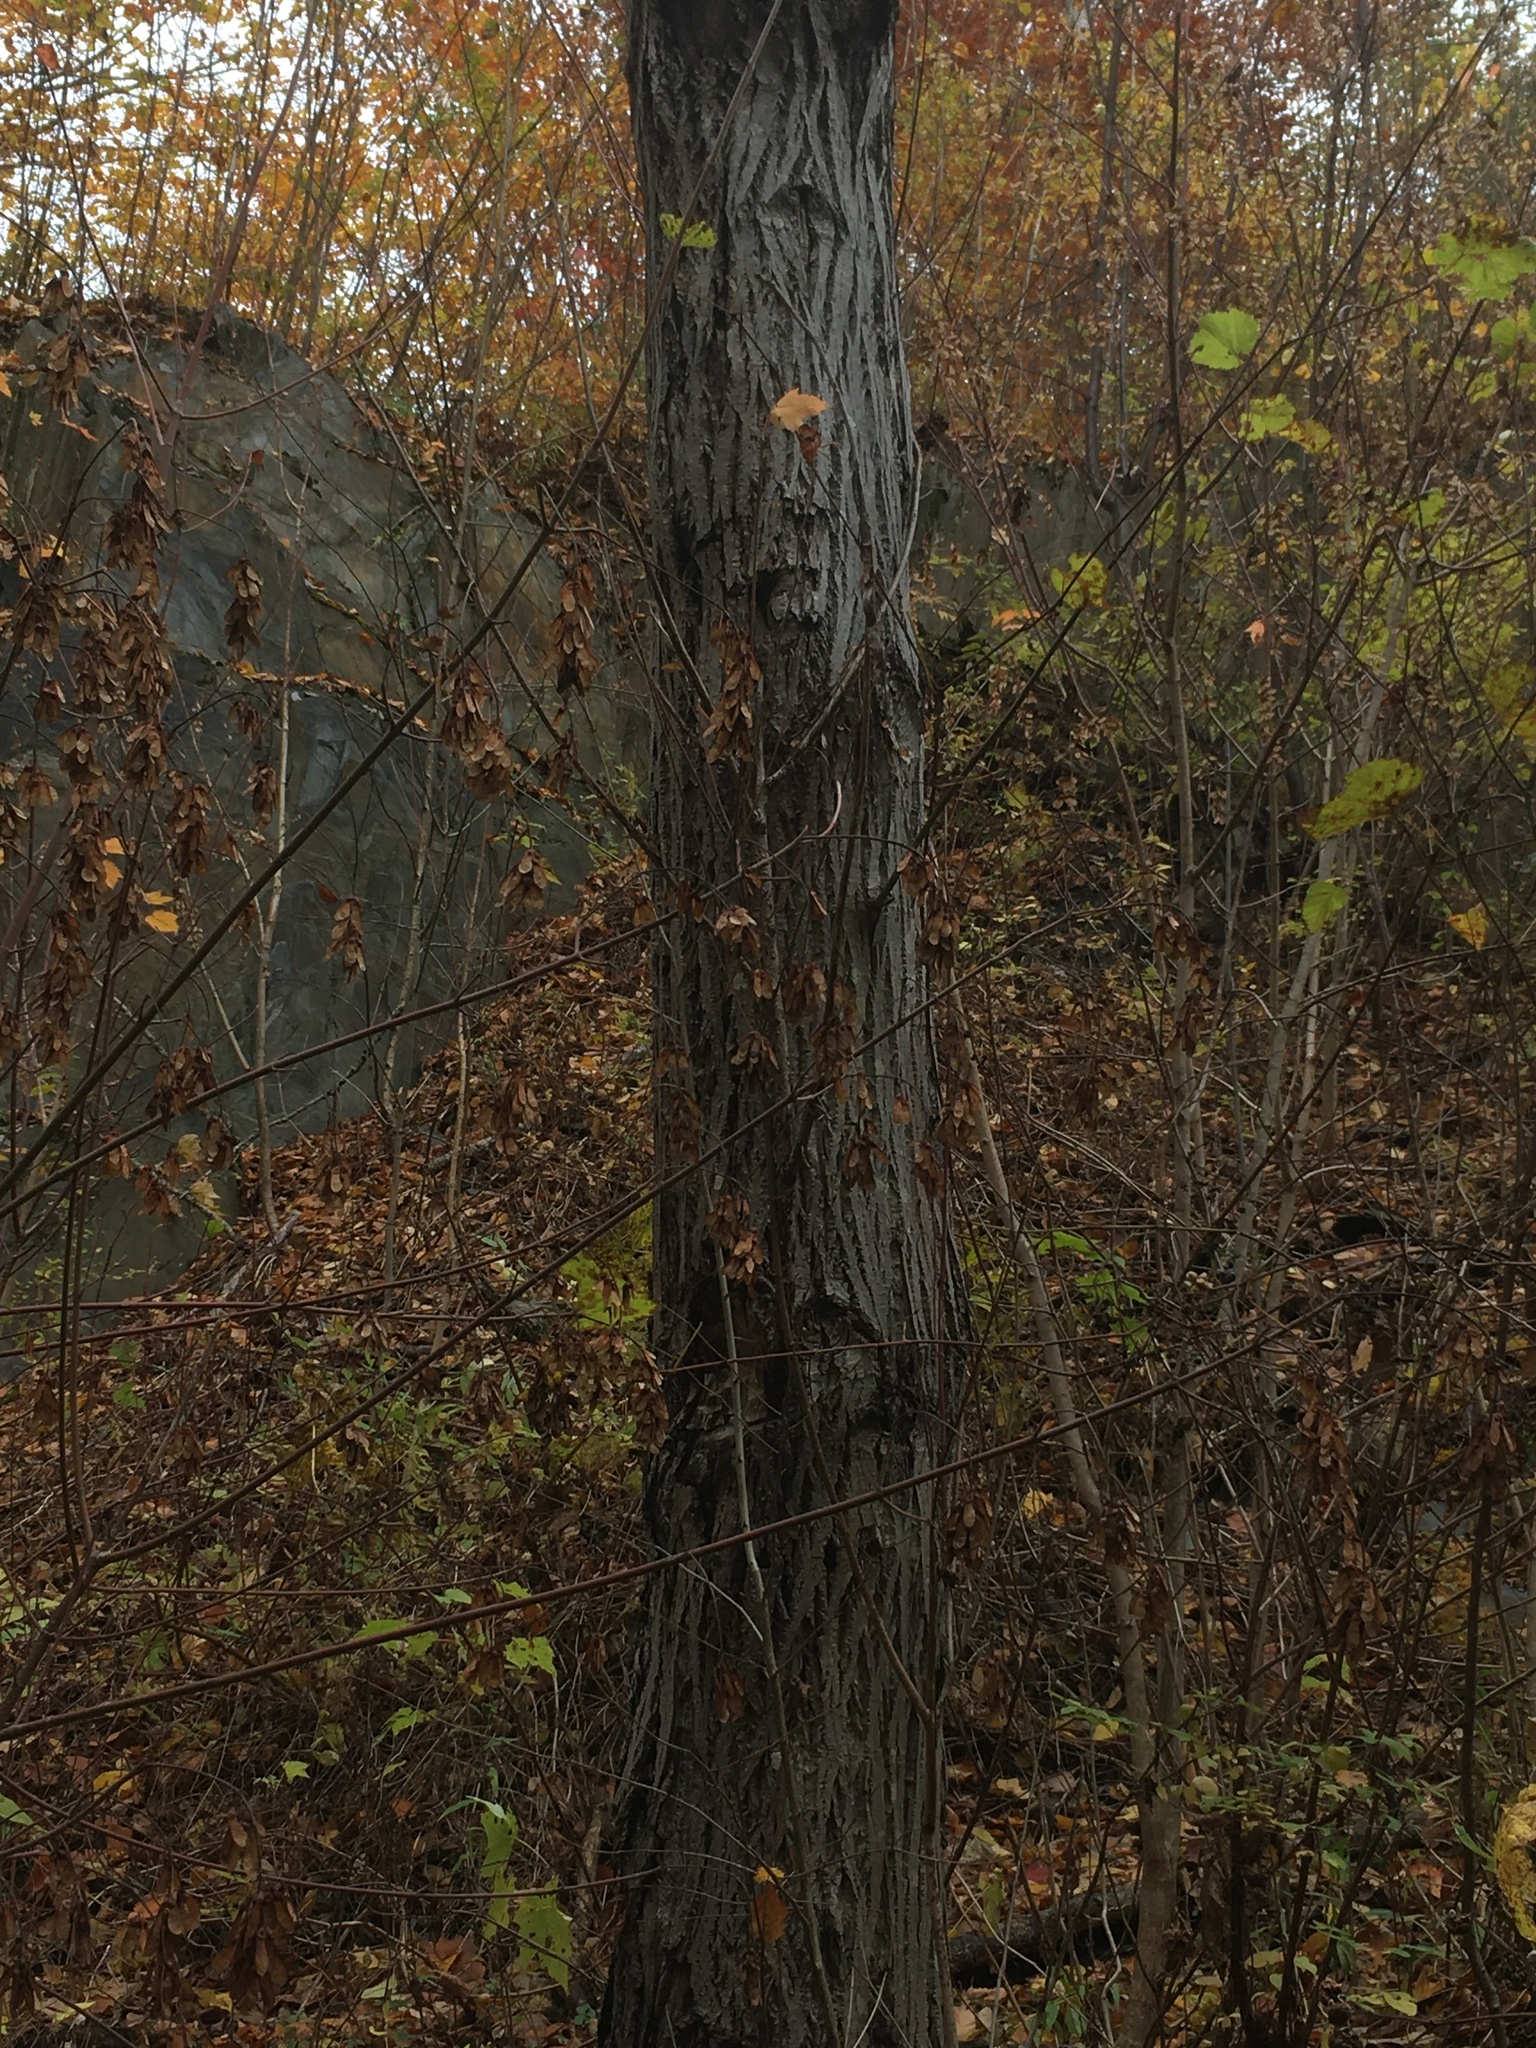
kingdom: Plantae
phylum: Tracheophyta
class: Magnoliopsida
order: Fagales
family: Juglandaceae
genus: Juglans
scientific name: Juglans cinerea
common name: Butternut
